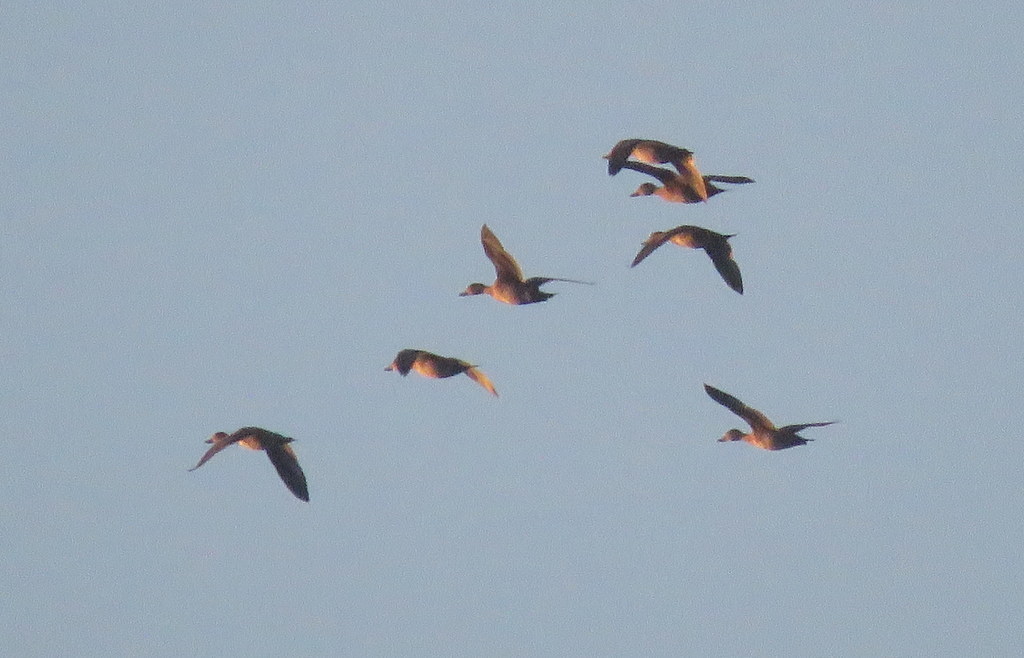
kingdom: Animalia
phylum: Chordata
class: Aves
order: Anseriformes
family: Anatidae
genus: Dendrocygna
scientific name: Dendrocygna bicolor
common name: Fulvous whistling duck
